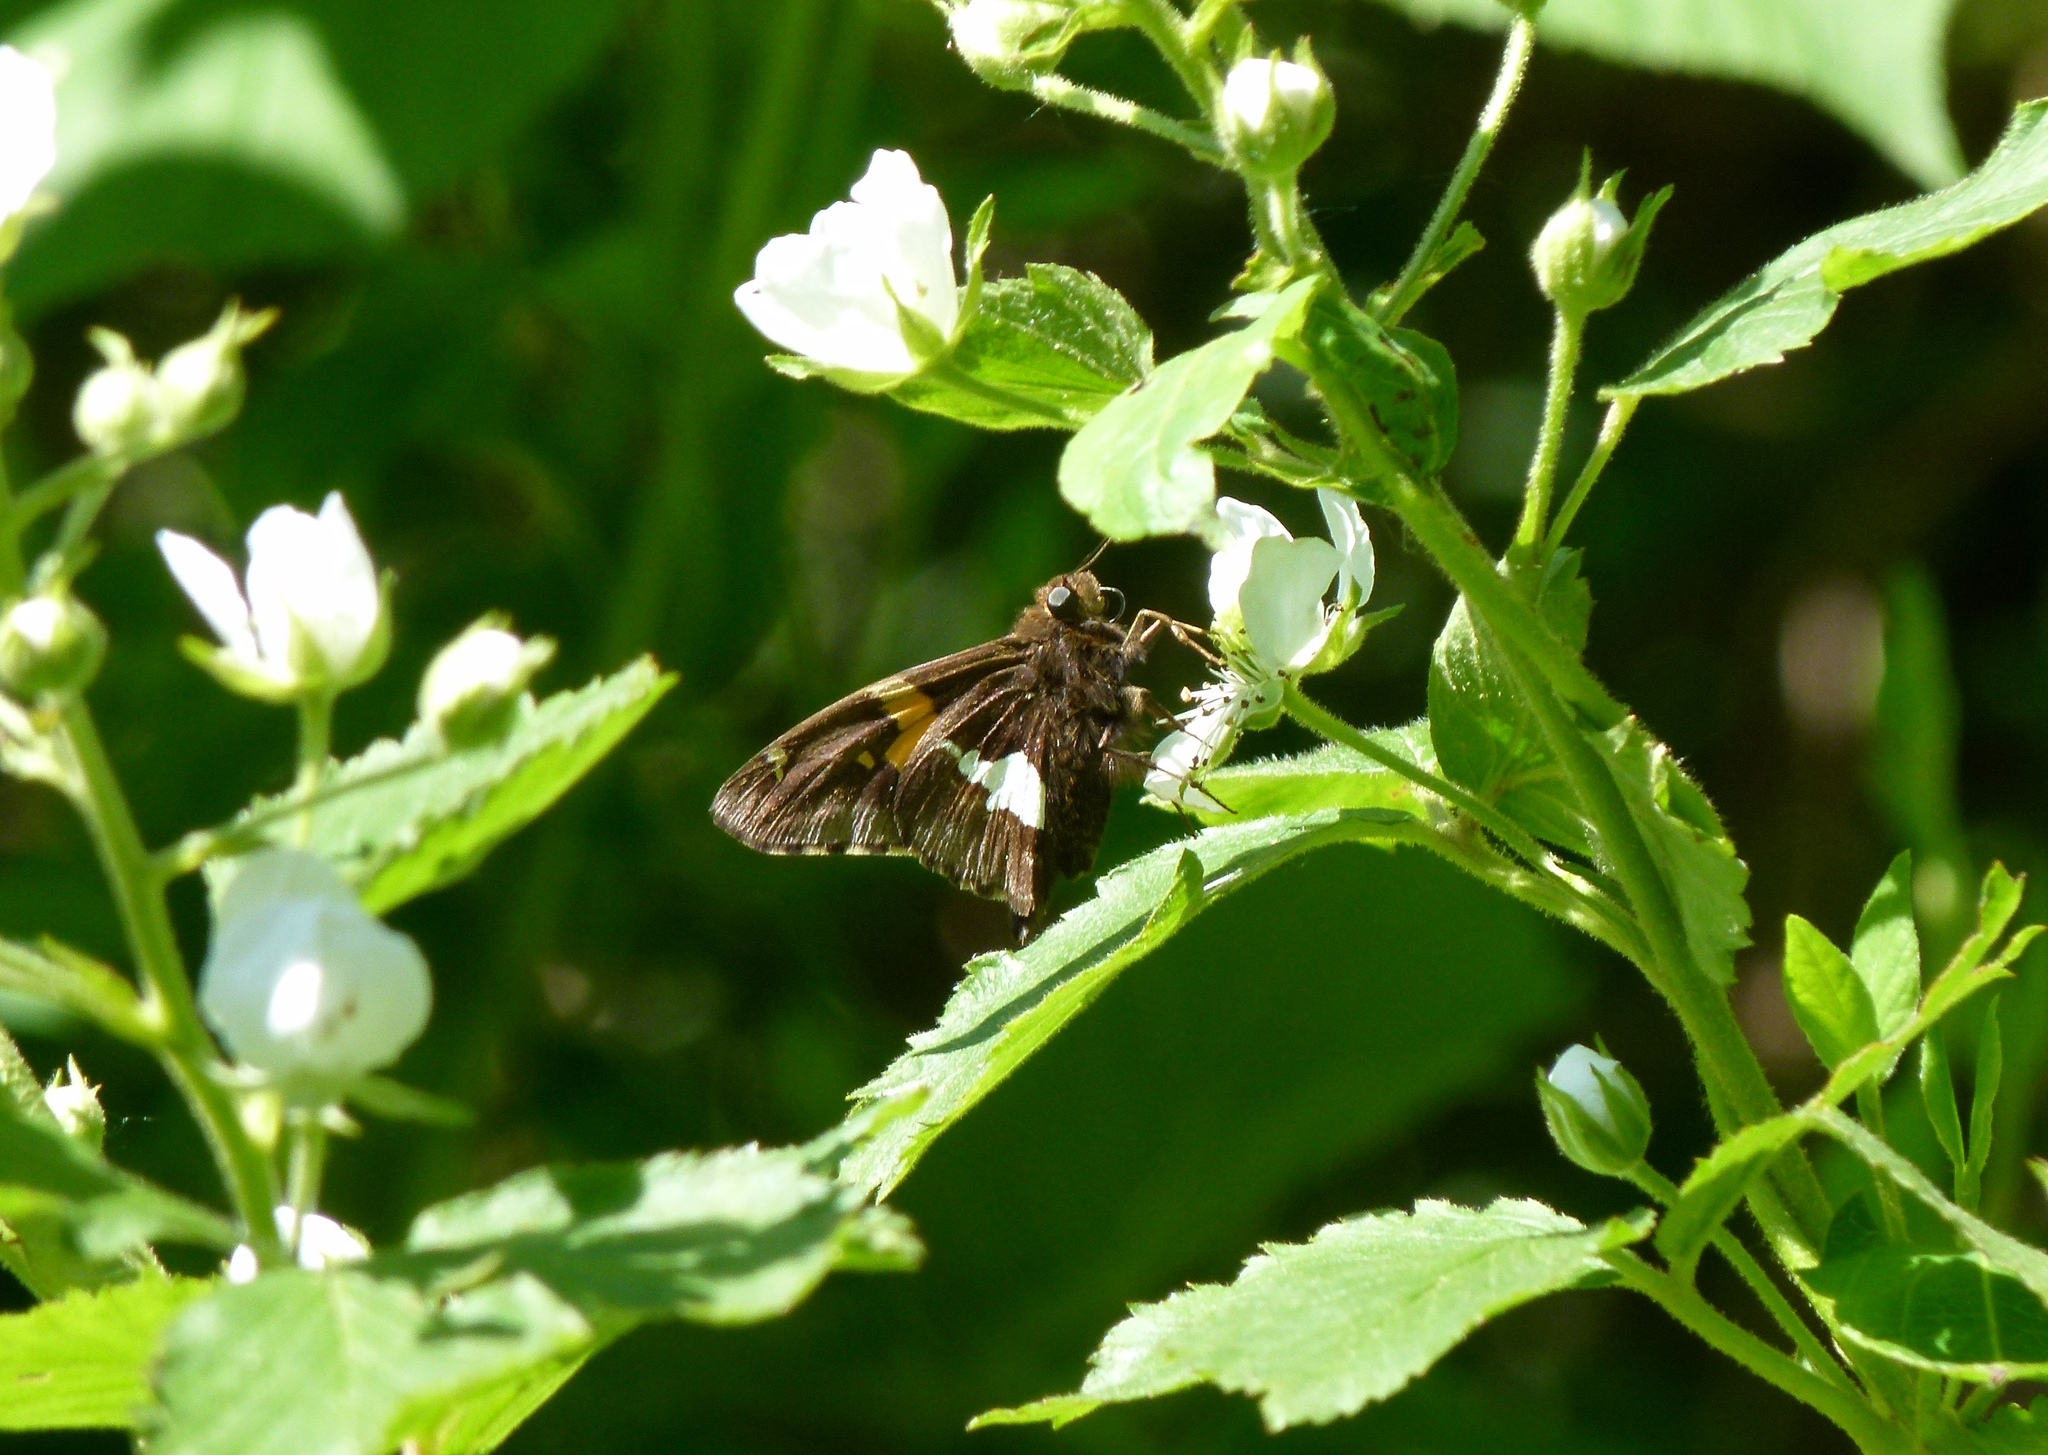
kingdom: Animalia
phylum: Arthropoda
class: Insecta
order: Lepidoptera
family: Hesperiidae
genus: Epargyreus
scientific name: Epargyreus clarus
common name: Silver-spotted skipper
